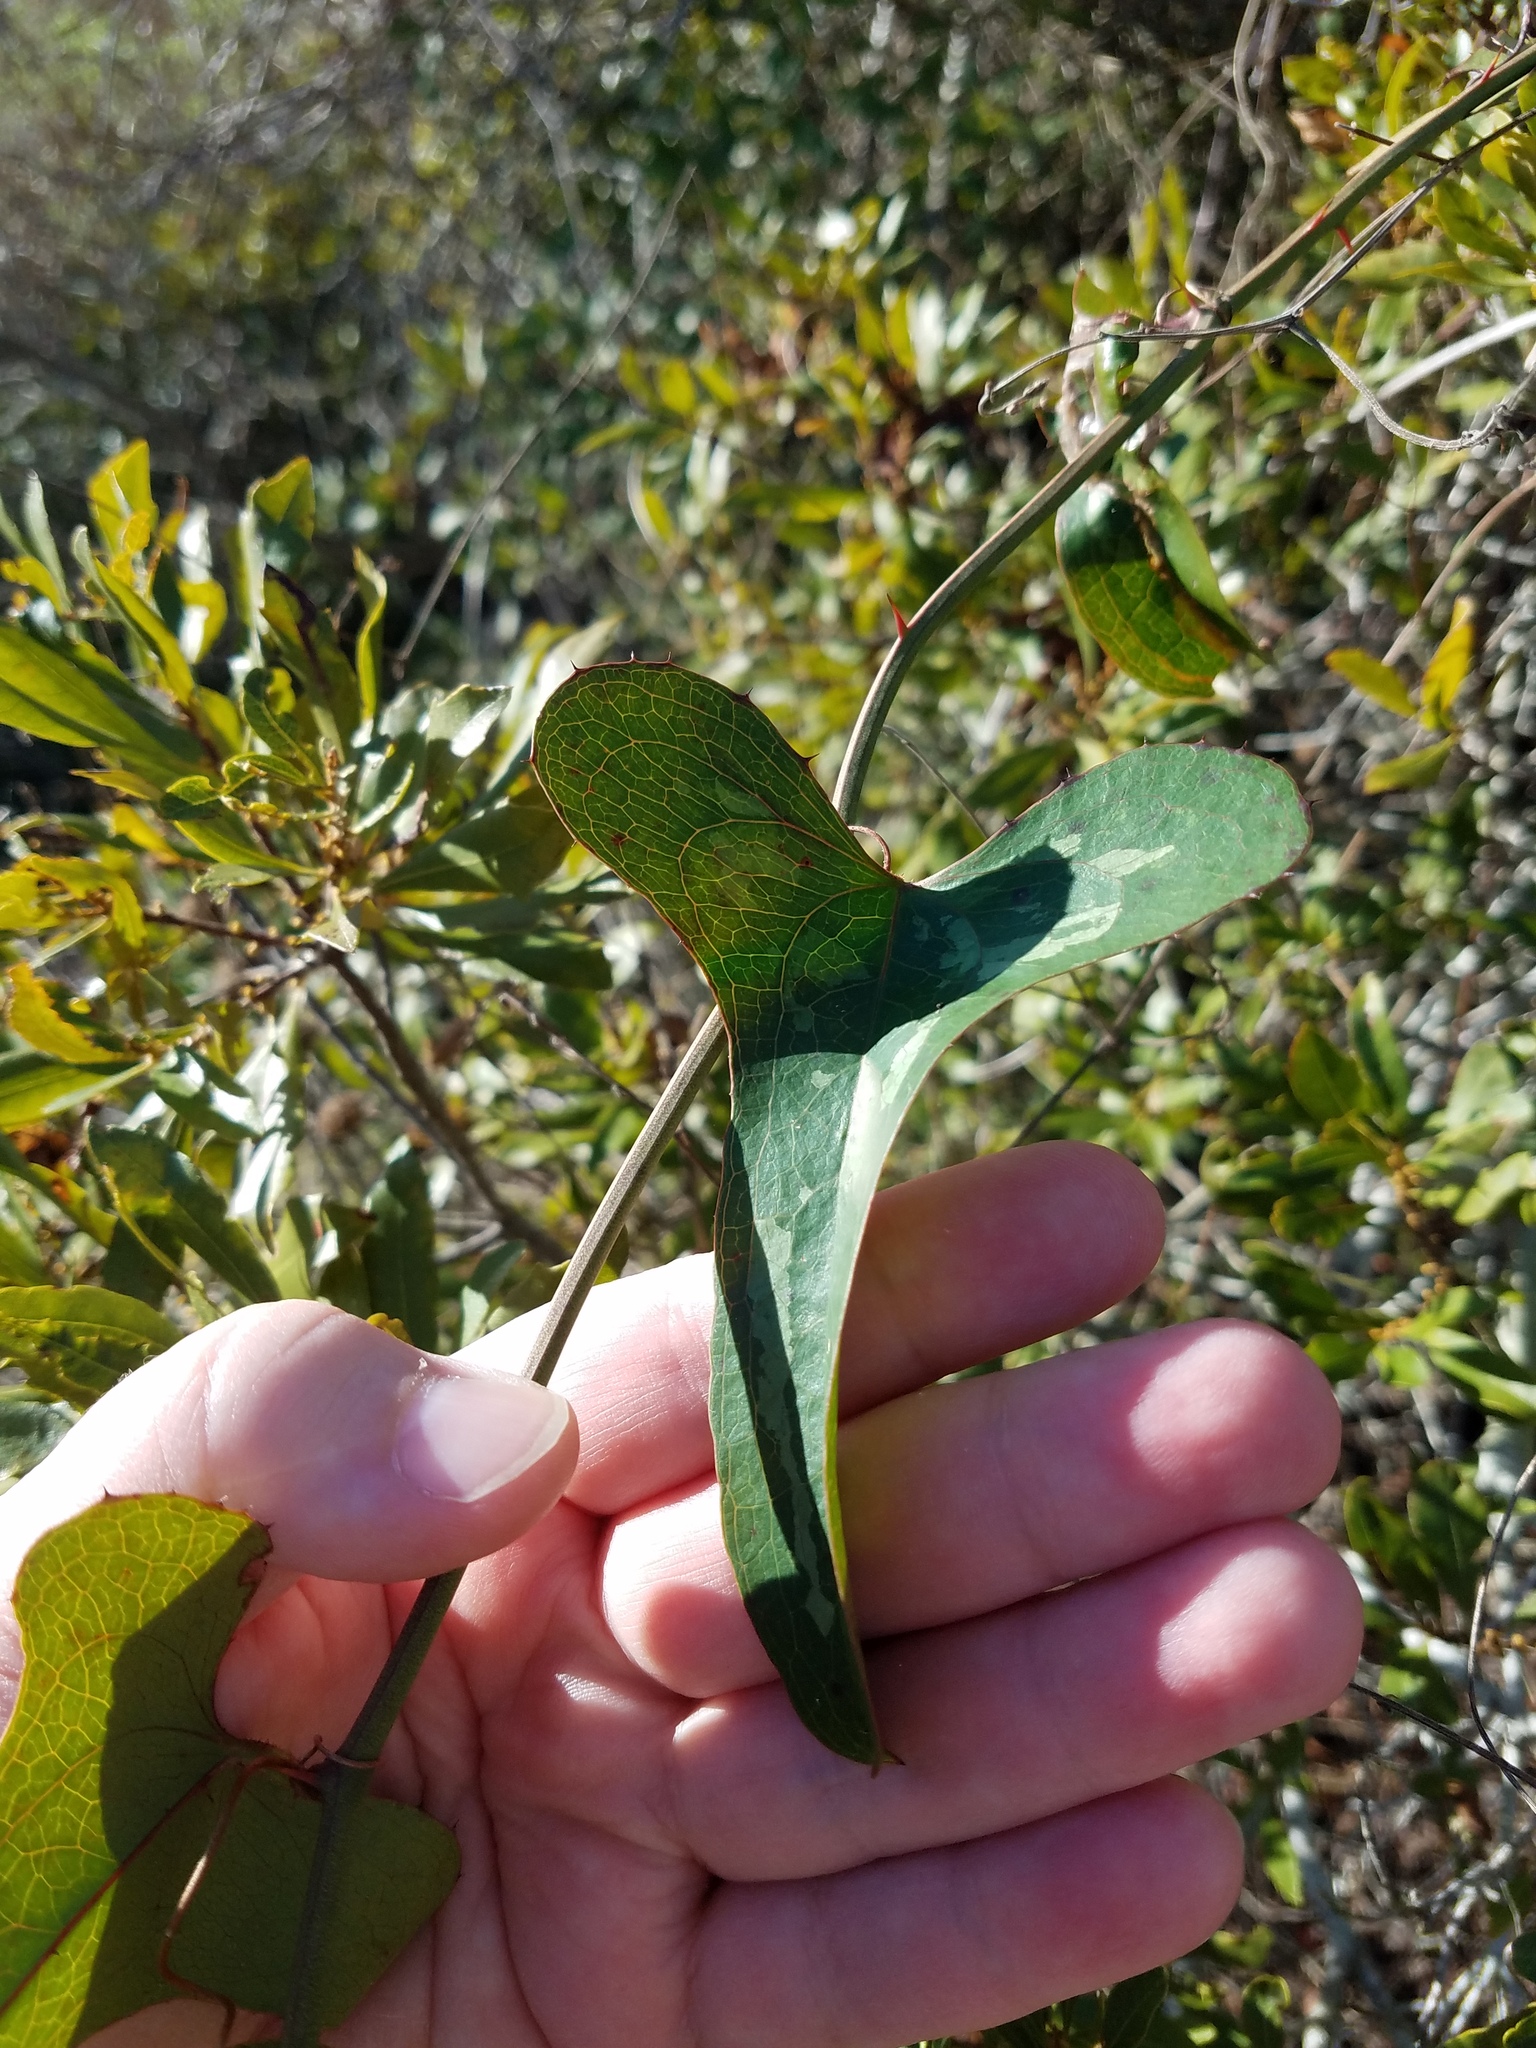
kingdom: Plantae
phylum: Tracheophyta
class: Liliopsida
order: Liliales
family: Smilacaceae
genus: Smilax
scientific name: Smilax bona-nox
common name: Catbrier
